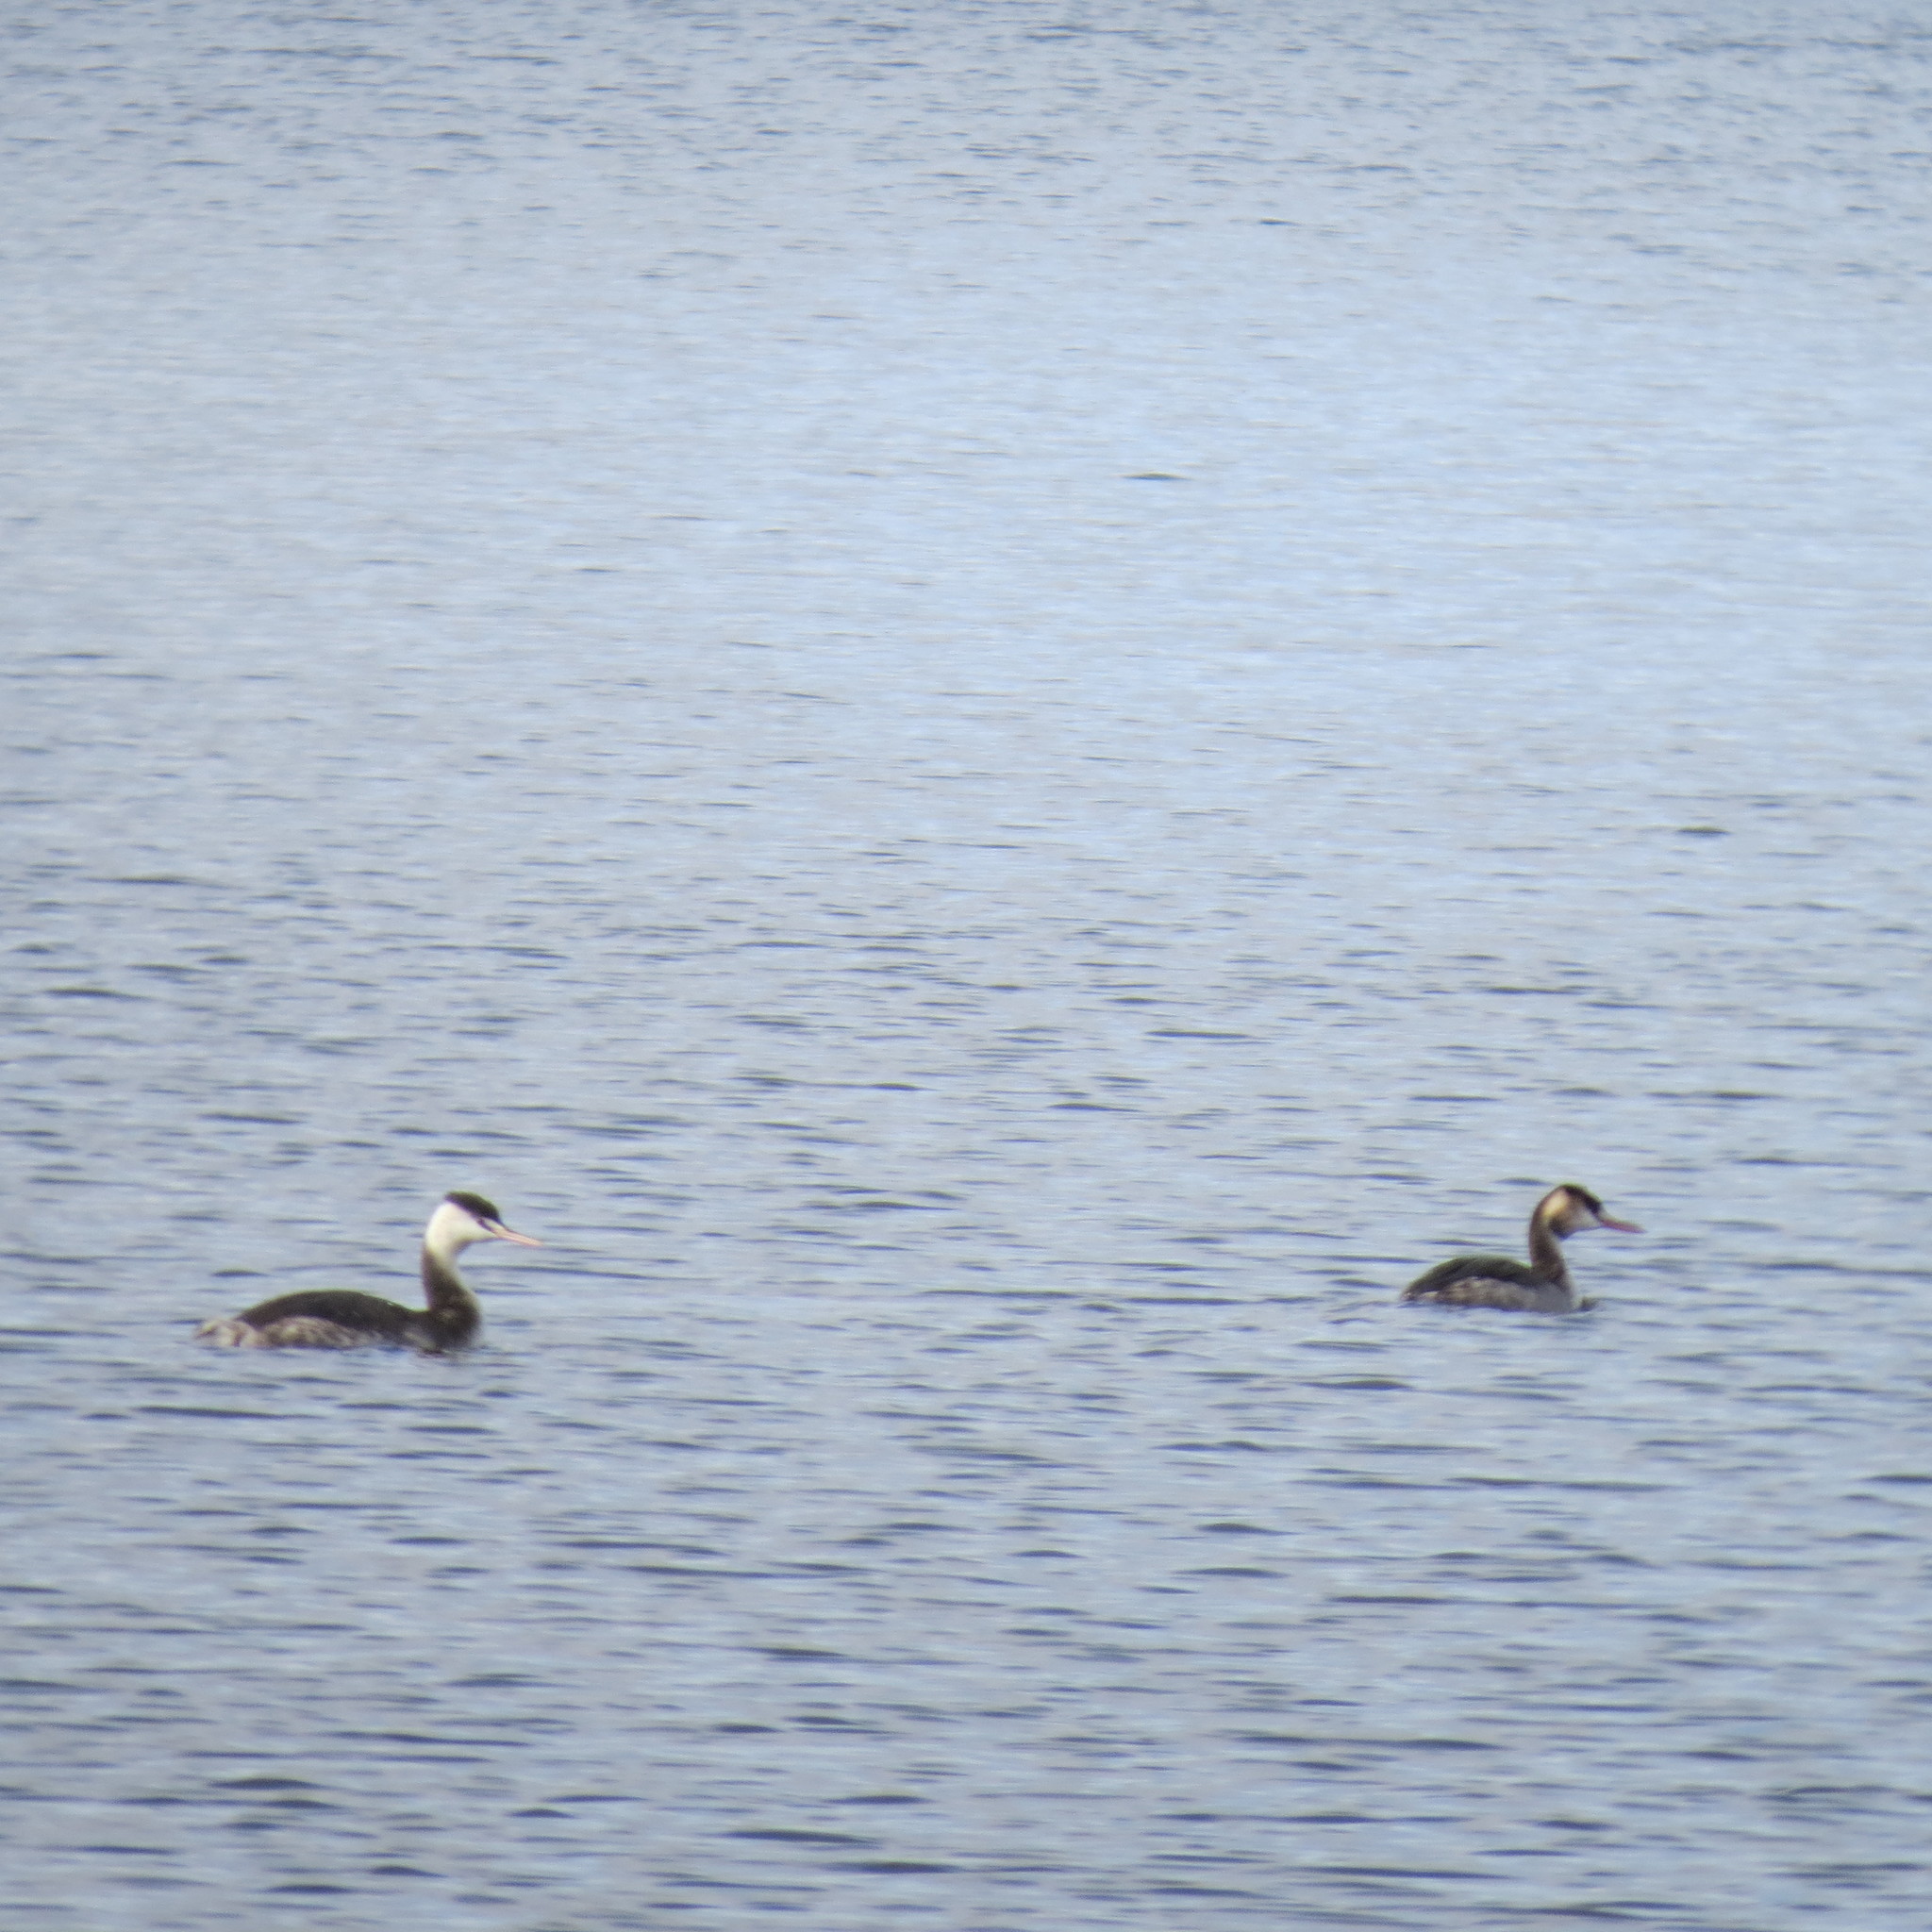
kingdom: Animalia
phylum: Chordata
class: Aves
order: Podicipediformes
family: Podicipedidae
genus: Podiceps
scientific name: Podiceps cristatus
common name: Great crested grebe
